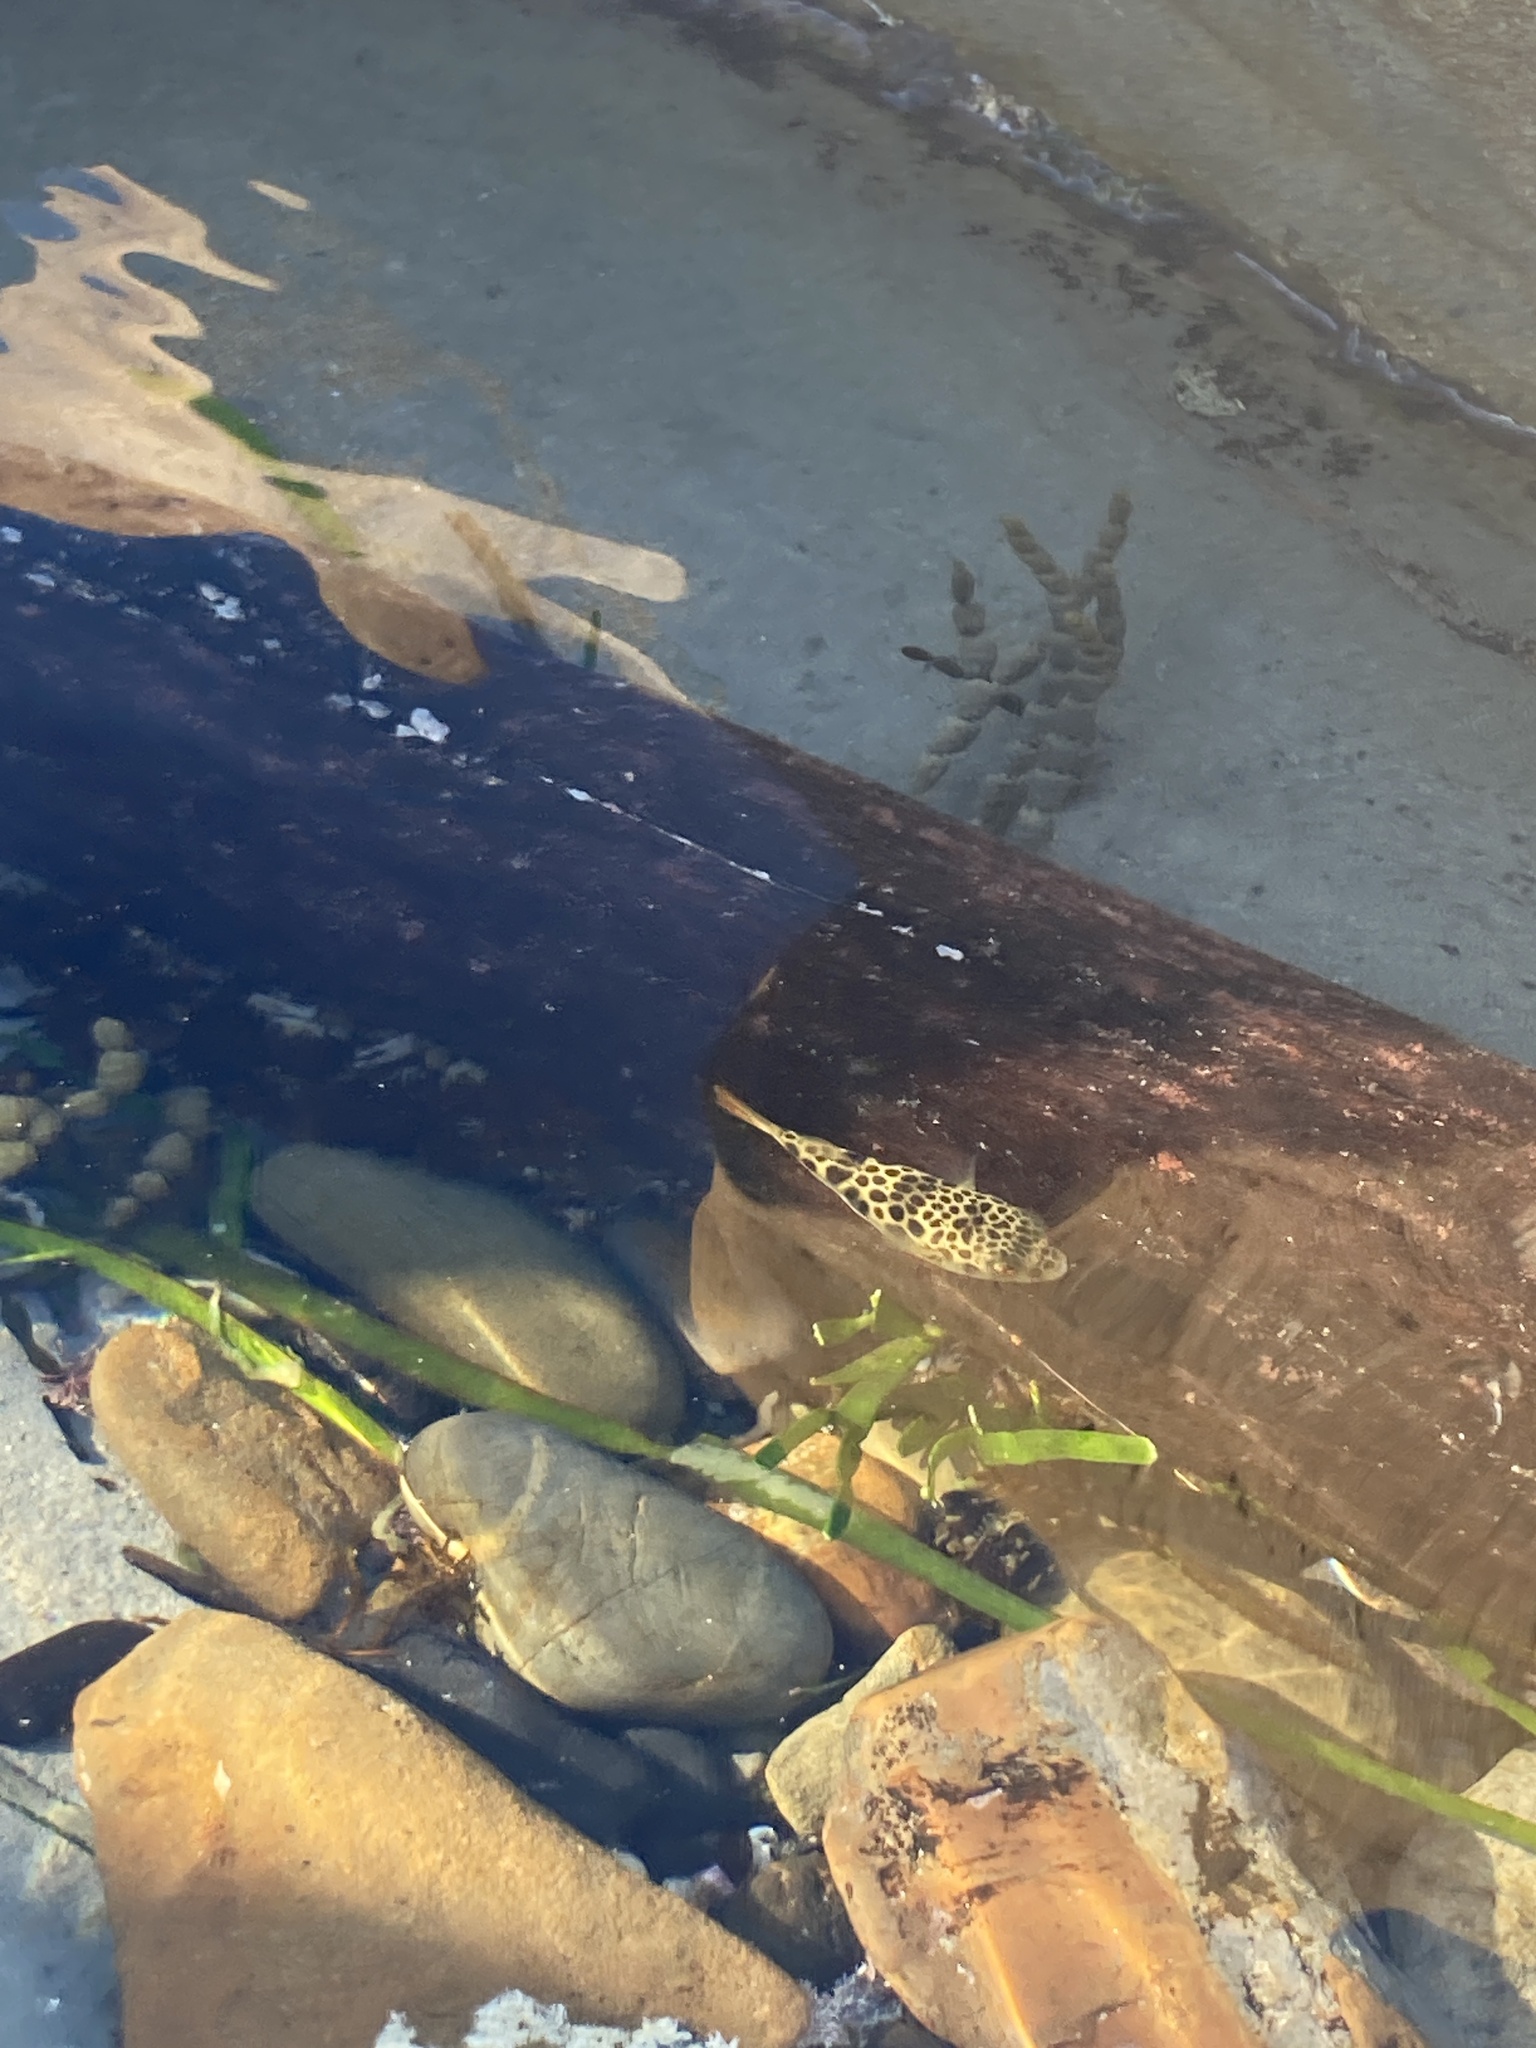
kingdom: Animalia
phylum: Chordata
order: Tetraodontiformes
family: Tetraodontidae
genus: Tetractenos
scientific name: Tetractenos glaber
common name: Smooth toadfish
